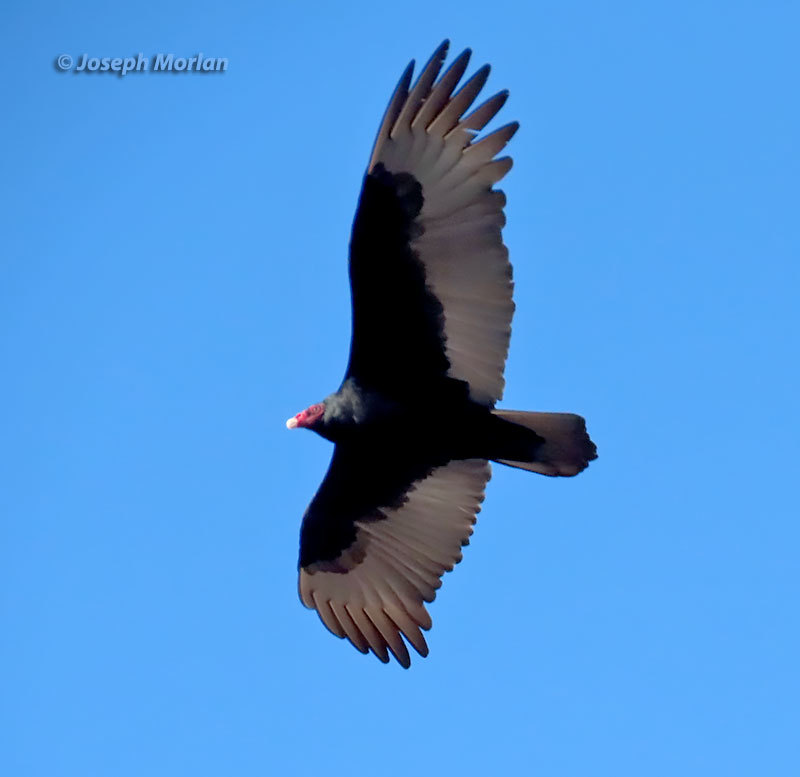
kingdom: Animalia
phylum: Chordata
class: Aves
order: Accipitriformes
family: Cathartidae
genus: Cathartes
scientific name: Cathartes aura
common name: Turkey vulture
